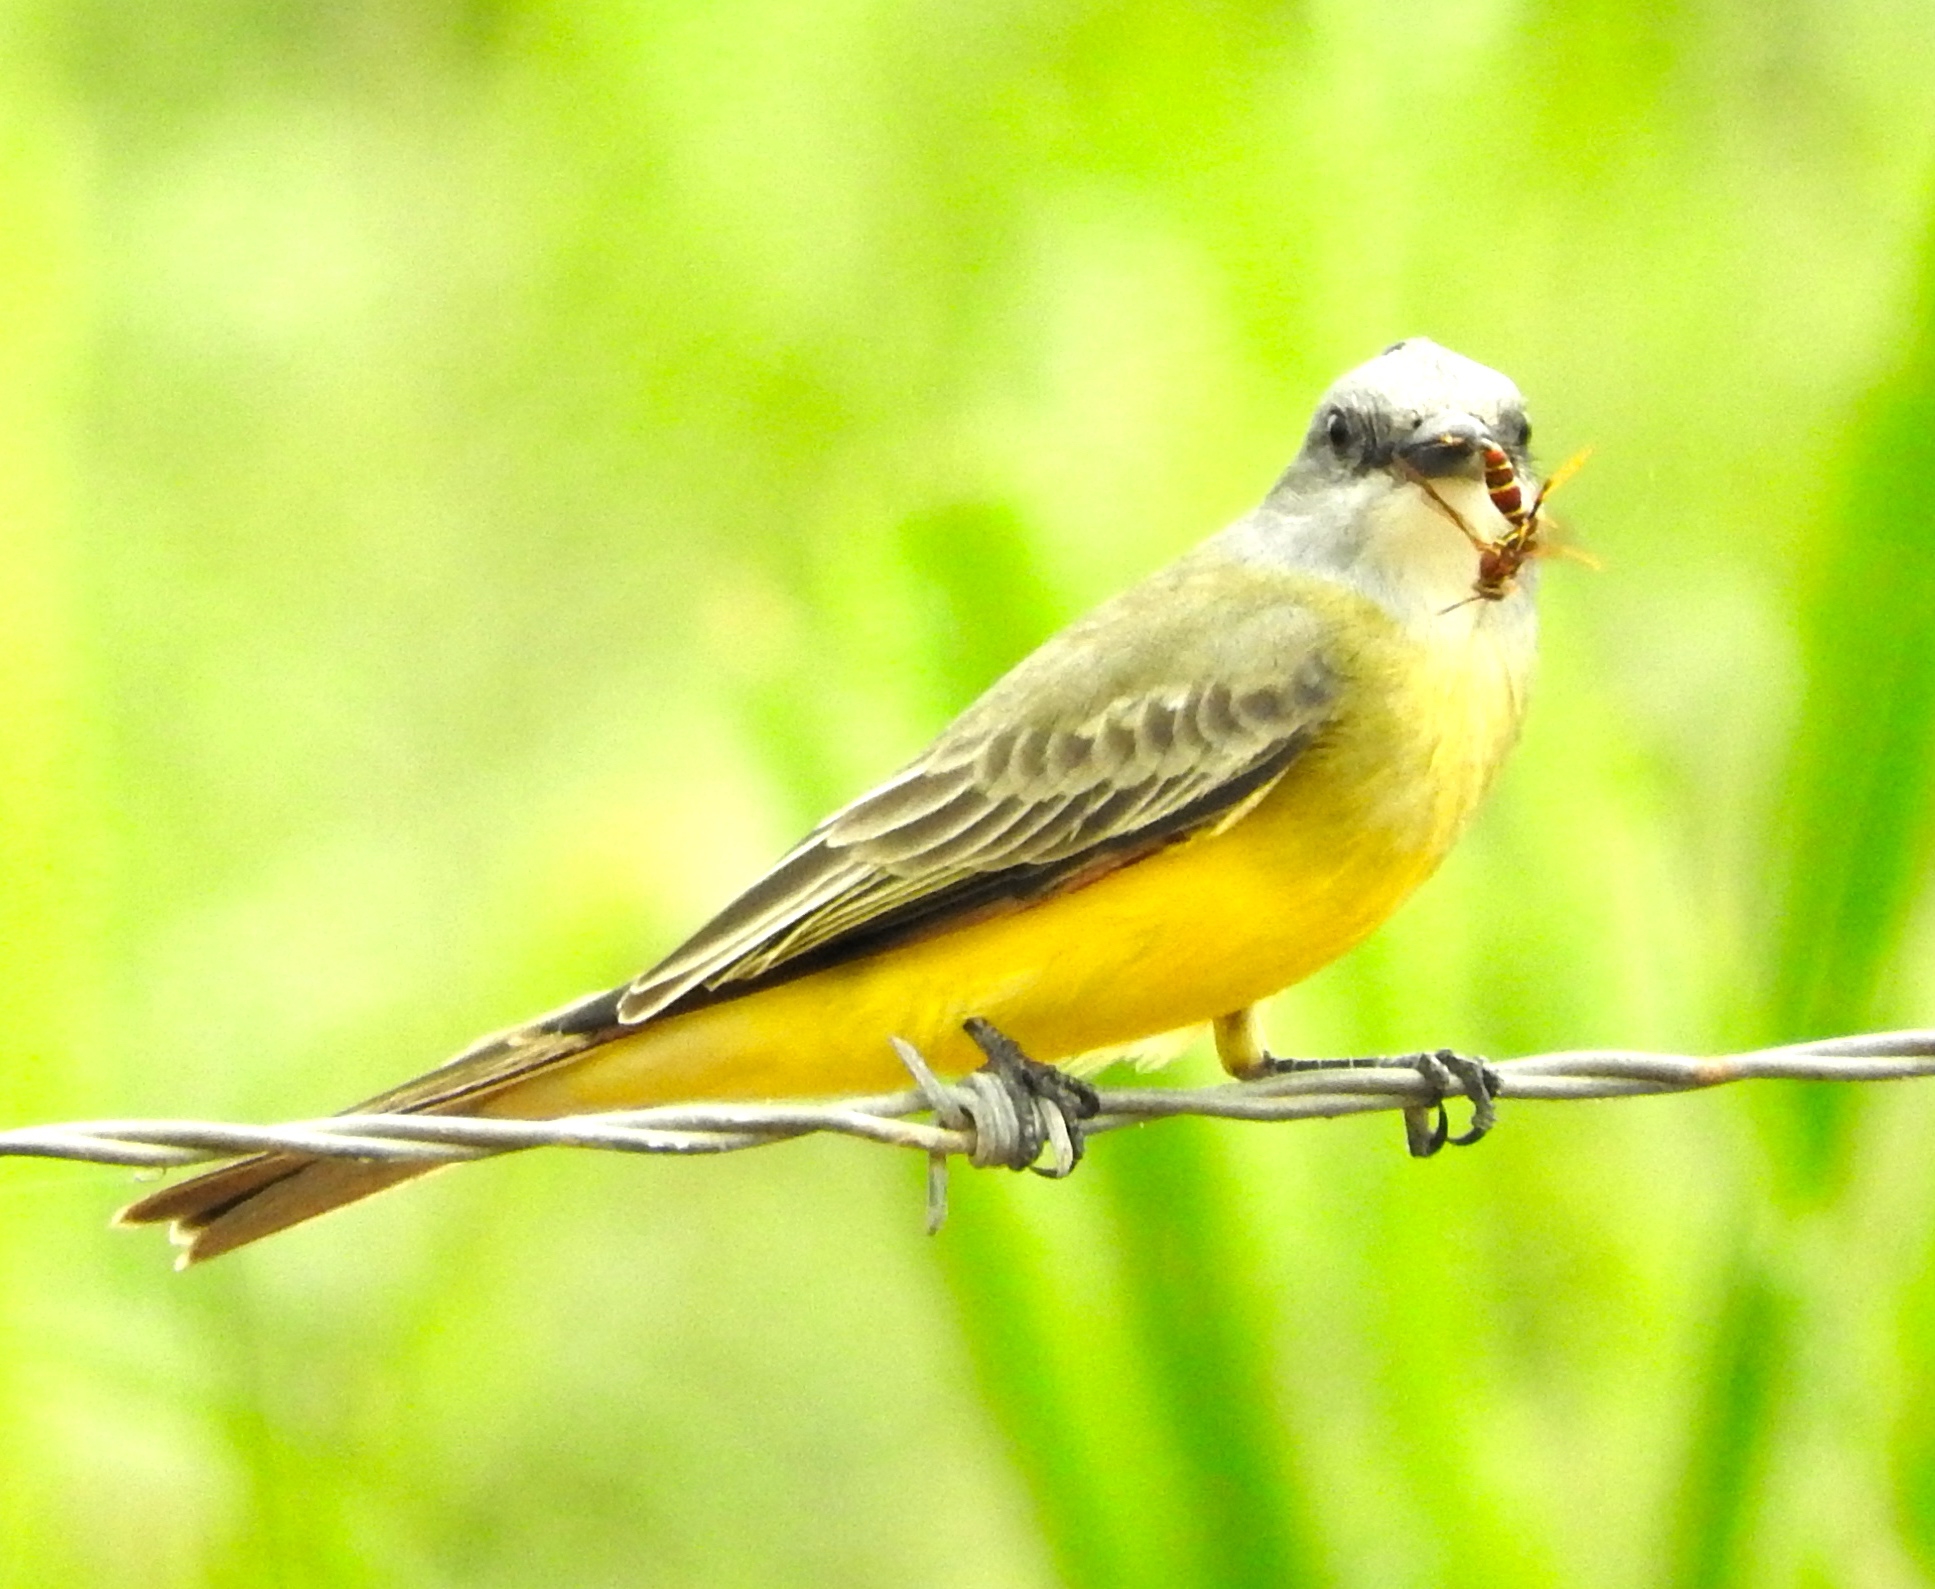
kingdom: Animalia
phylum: Chordata
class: Aves
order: Passeriformes
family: Tyrannidae
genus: Tyrannus
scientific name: Tyrannus melancholicus
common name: Tropical kingbird
